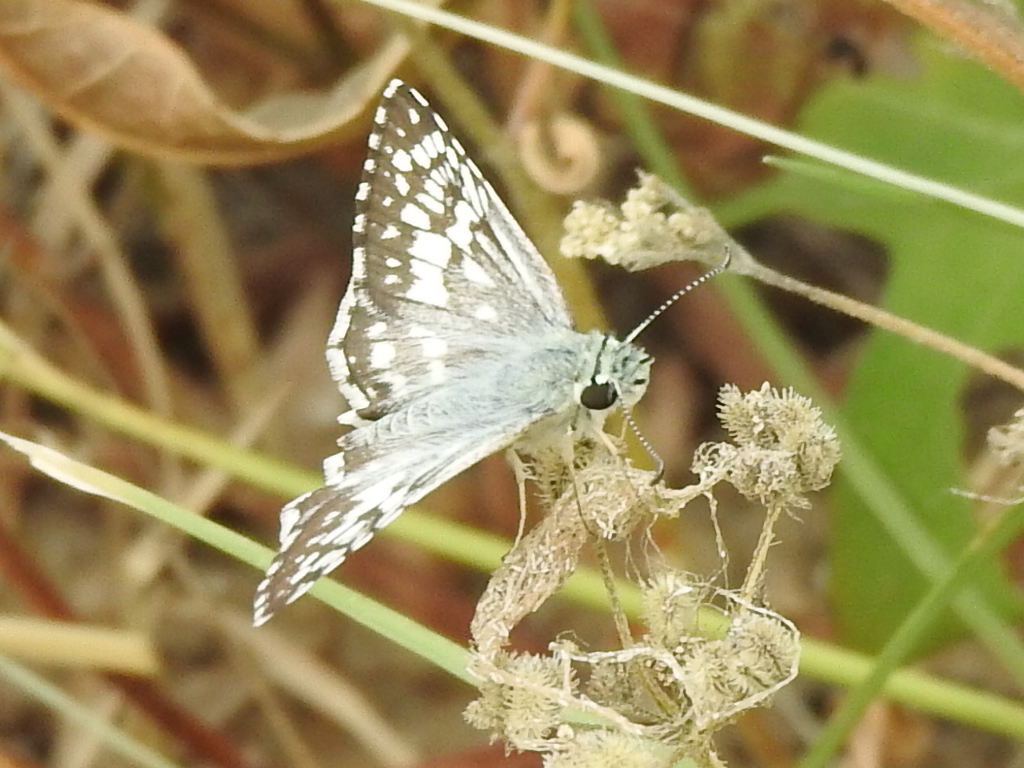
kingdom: Animalia
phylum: Arthropoda
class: Insecta
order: Lepidoptera
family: Hesperiidae
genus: Burnsius
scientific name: Burnsius
